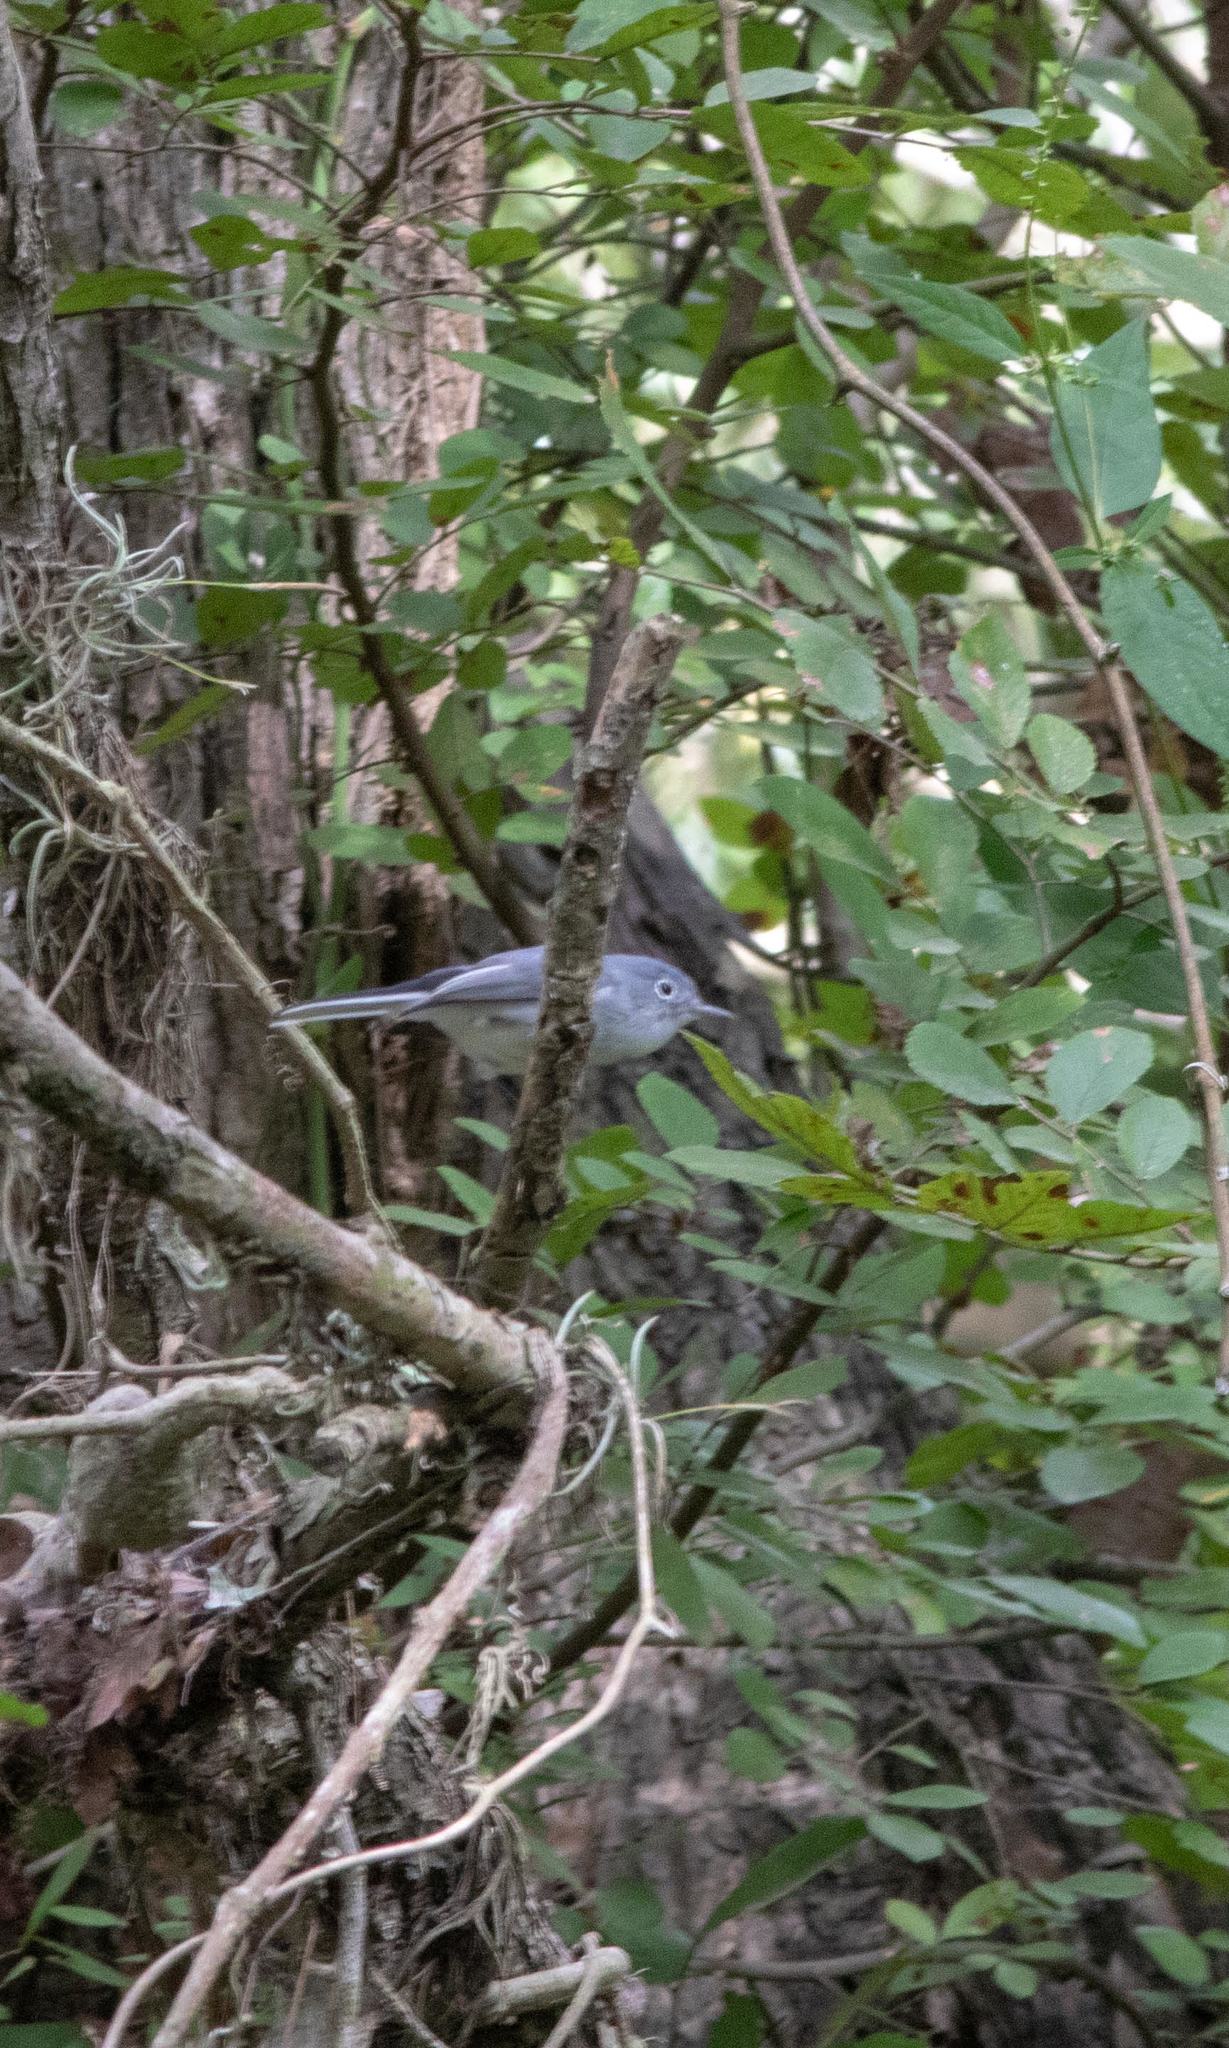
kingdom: Animalia
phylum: Chordata
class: Aves
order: Passeriformes
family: Polioptilidae
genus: Polioptila
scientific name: Polioptila caerulea
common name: Blue-gray gnatcatcher
